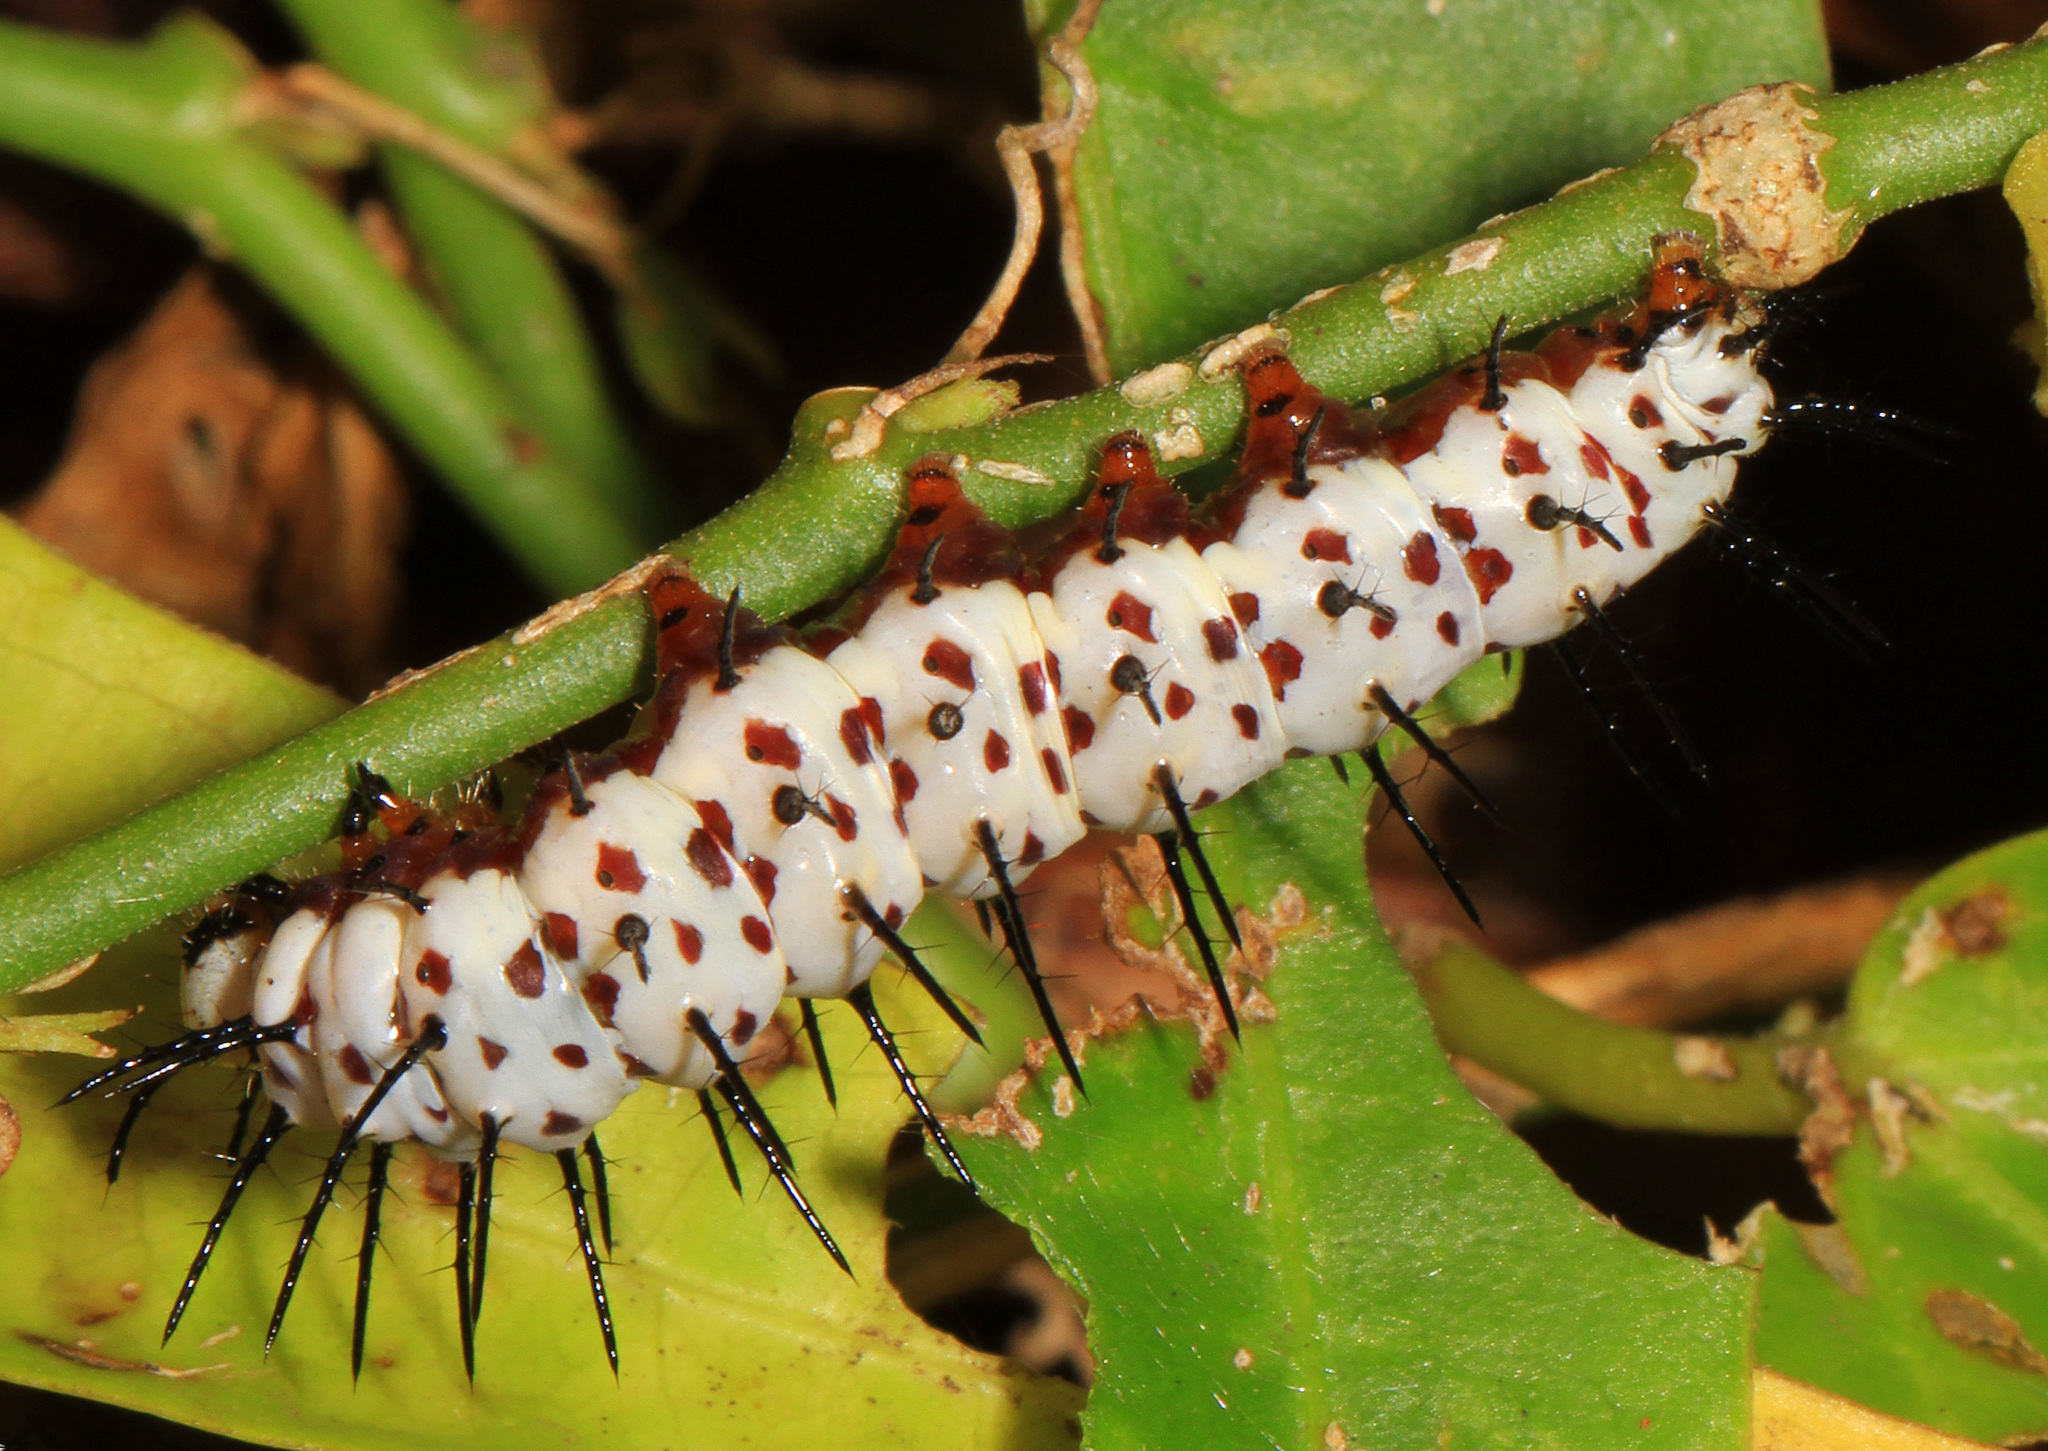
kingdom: Animalia
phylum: Arthropoda
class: Insecta
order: Lepidoptera
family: Nymphalidae
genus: Heliconius
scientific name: Heliconius charithonia
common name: Zebra long wing
